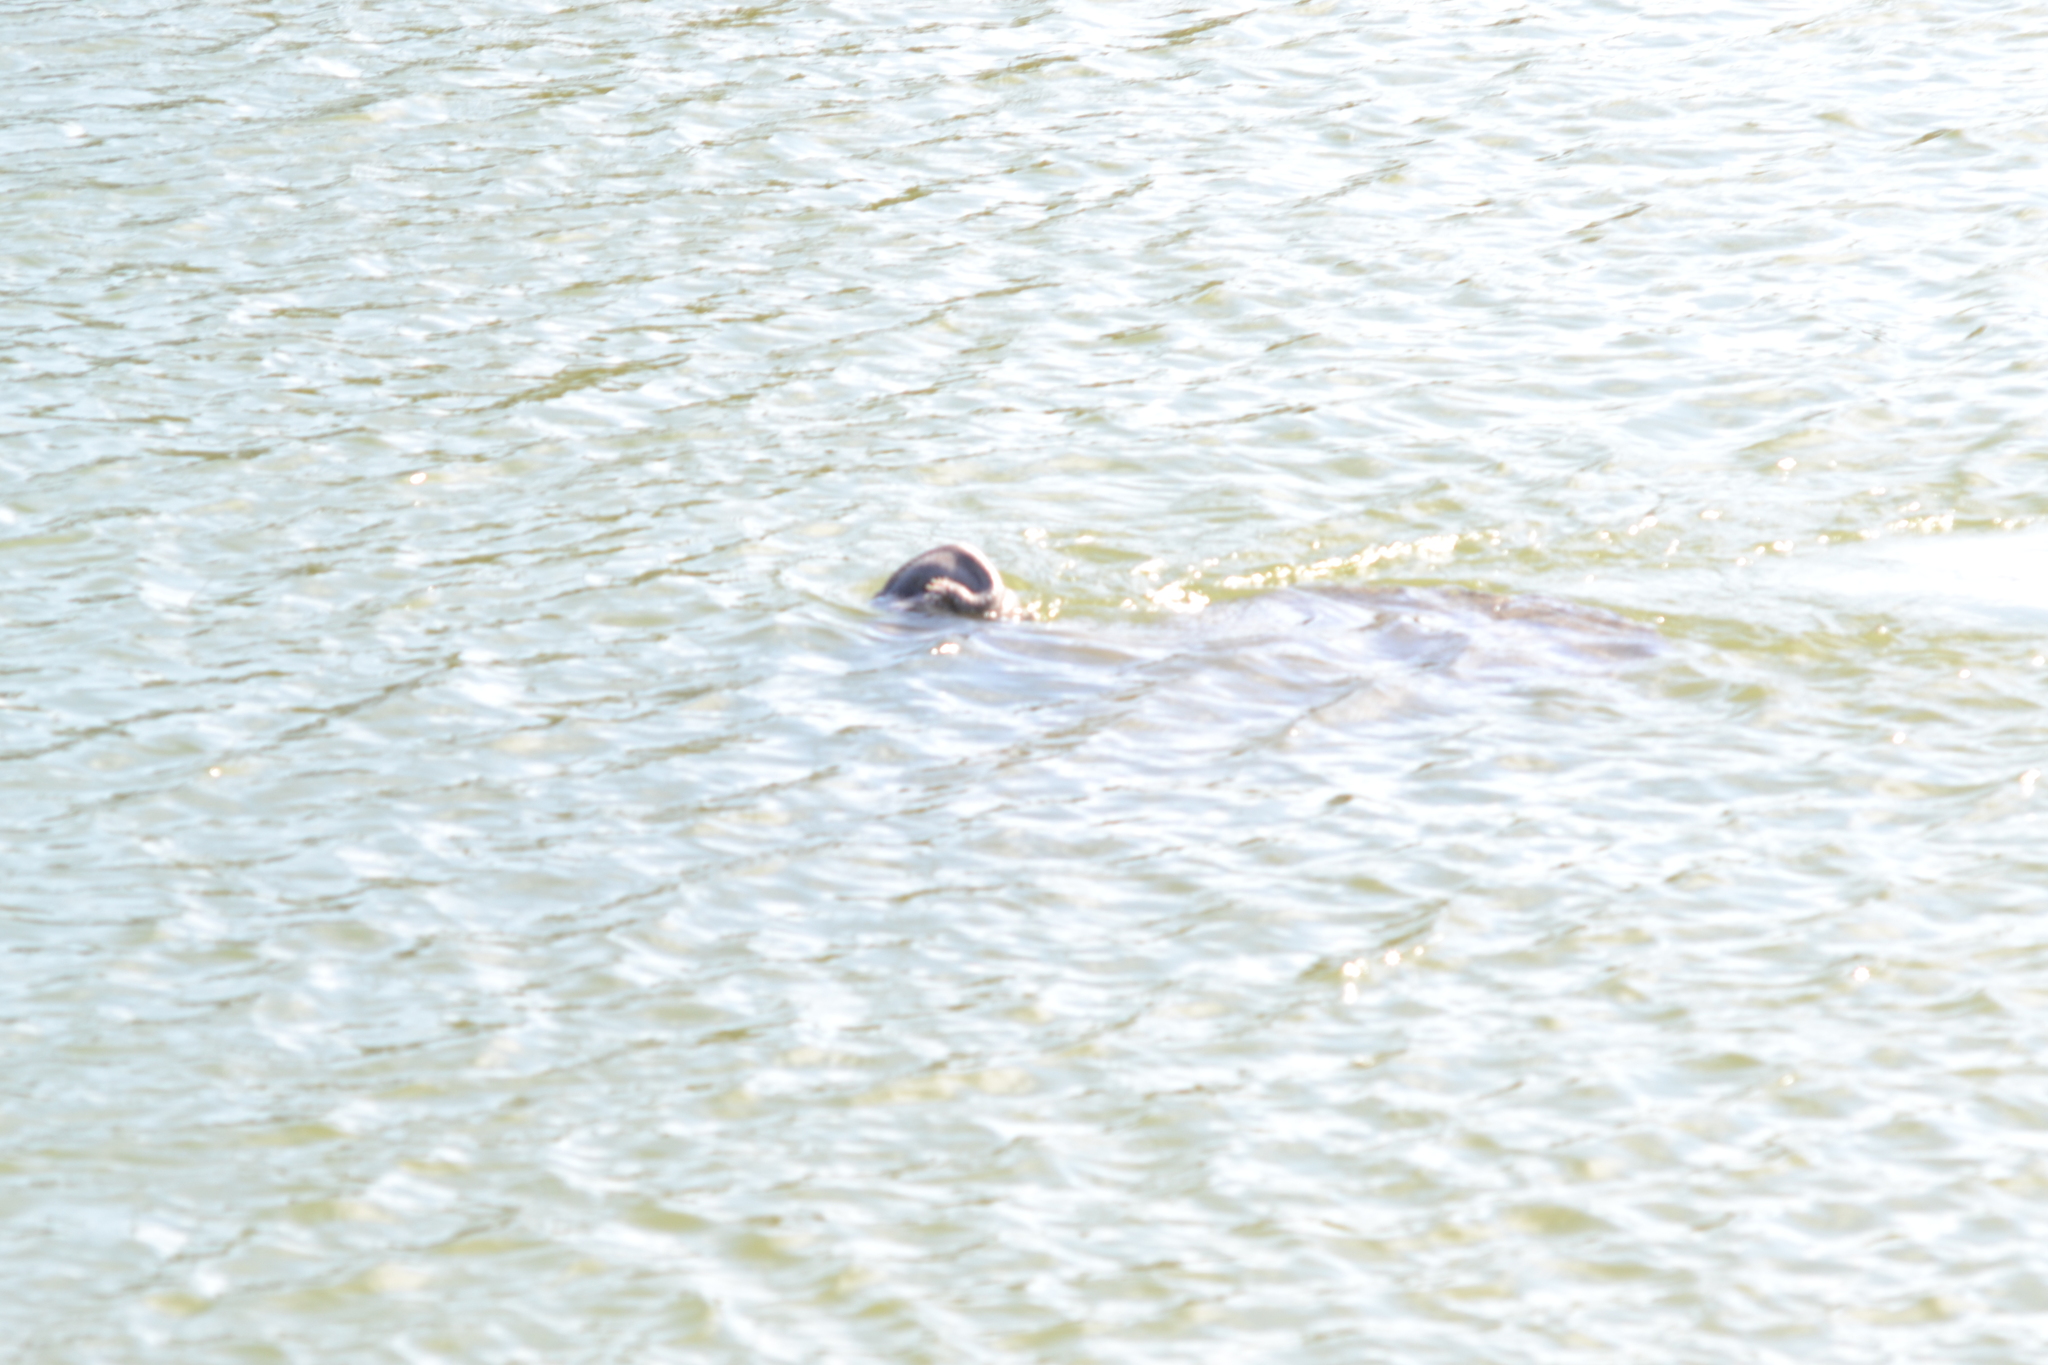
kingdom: Animalia
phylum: Chordata
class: Mammalia
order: Sirenia
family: Trichechidae
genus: Trichechus
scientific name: Trichechus manatus
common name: West indian manatee
